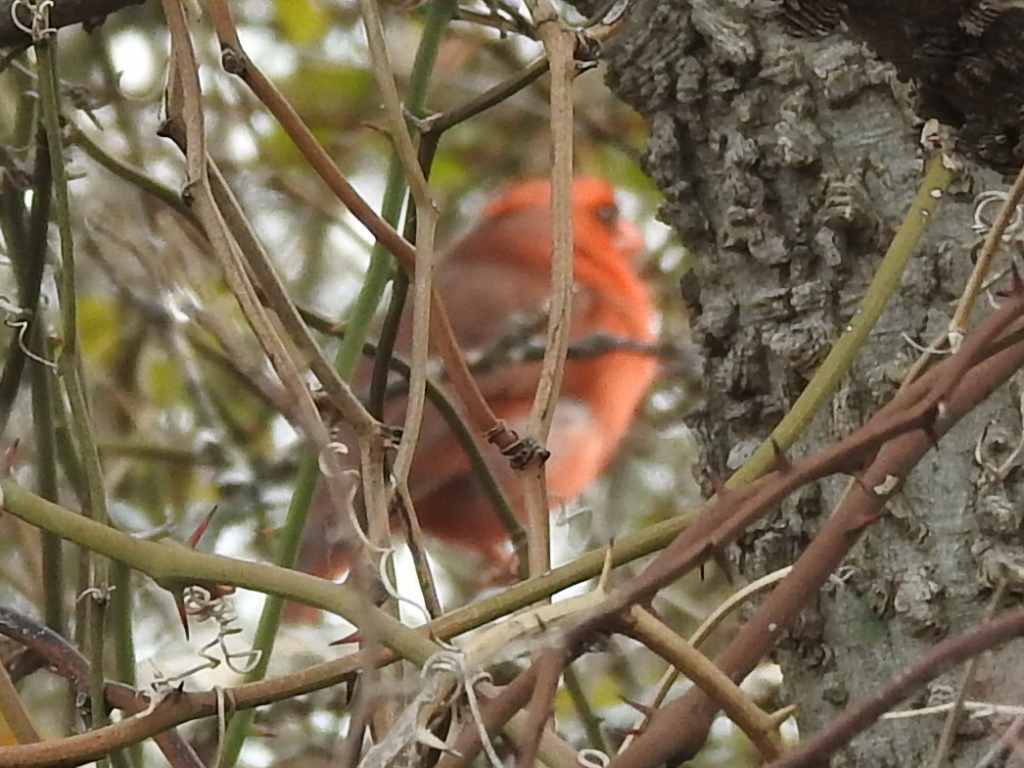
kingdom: Animalia
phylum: Chordata
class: Aves
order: Passeriformes
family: Cardinalidae
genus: Cardinalis
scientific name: Cardinalis cardinalis
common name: Northern cardinal
